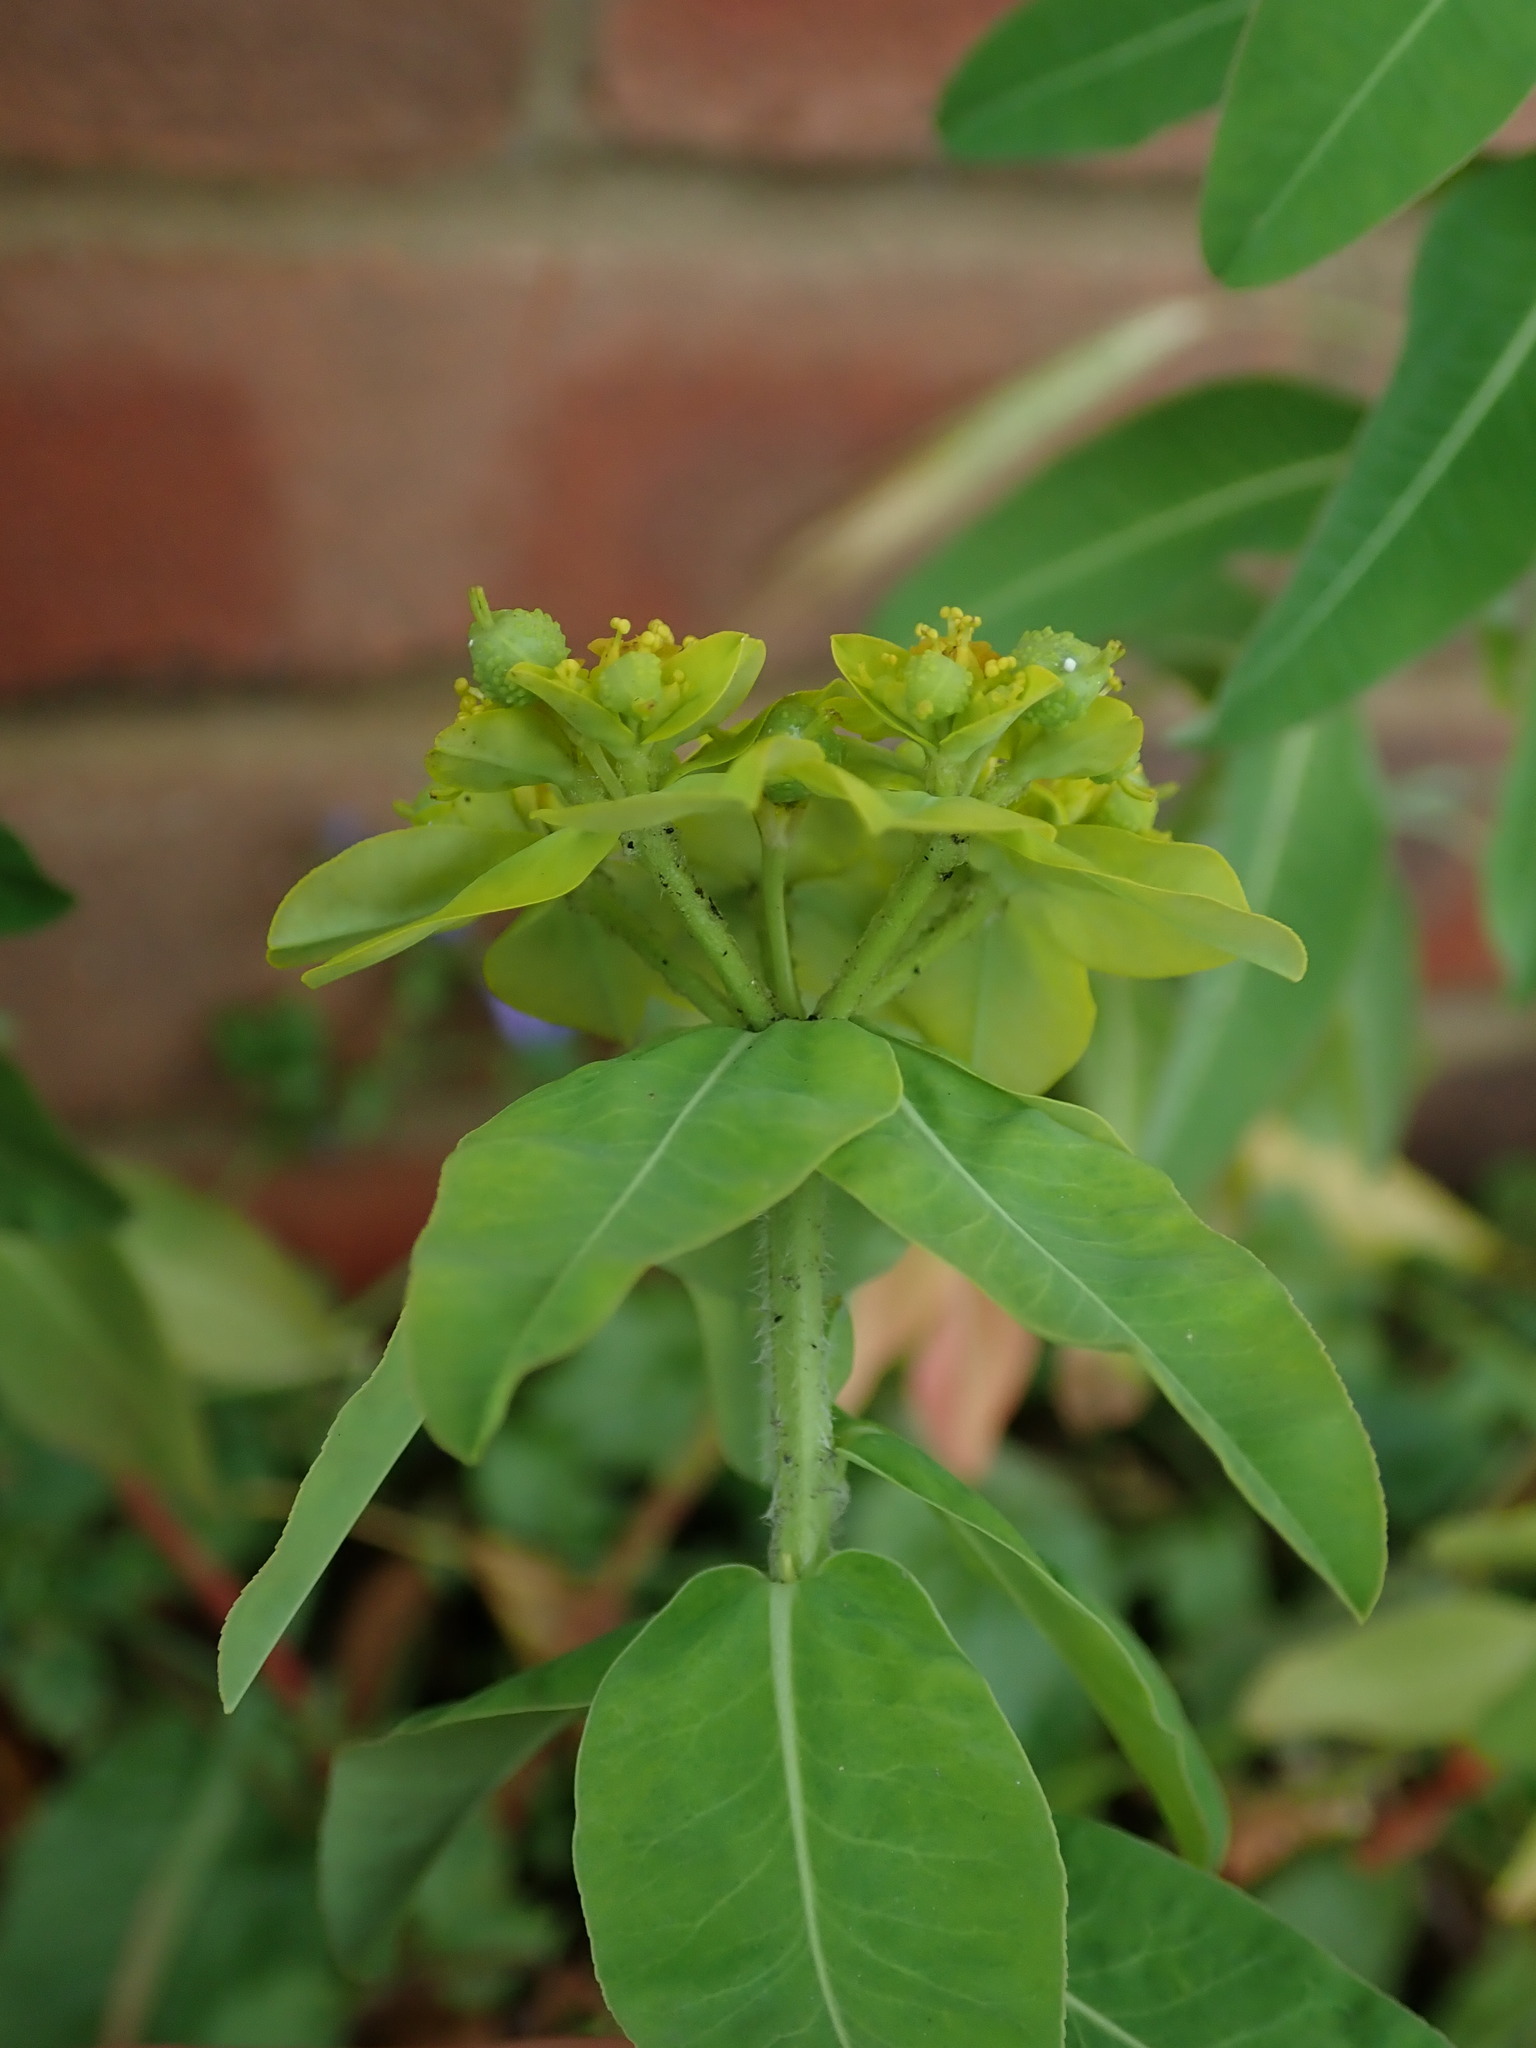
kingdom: Plantae
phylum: Tracheophyta
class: Magnoliopsida
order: Malpighiales
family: Euphorbiaceae
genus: Euphorbia
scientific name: Euphorbia oblongata
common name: Balkan spurge
